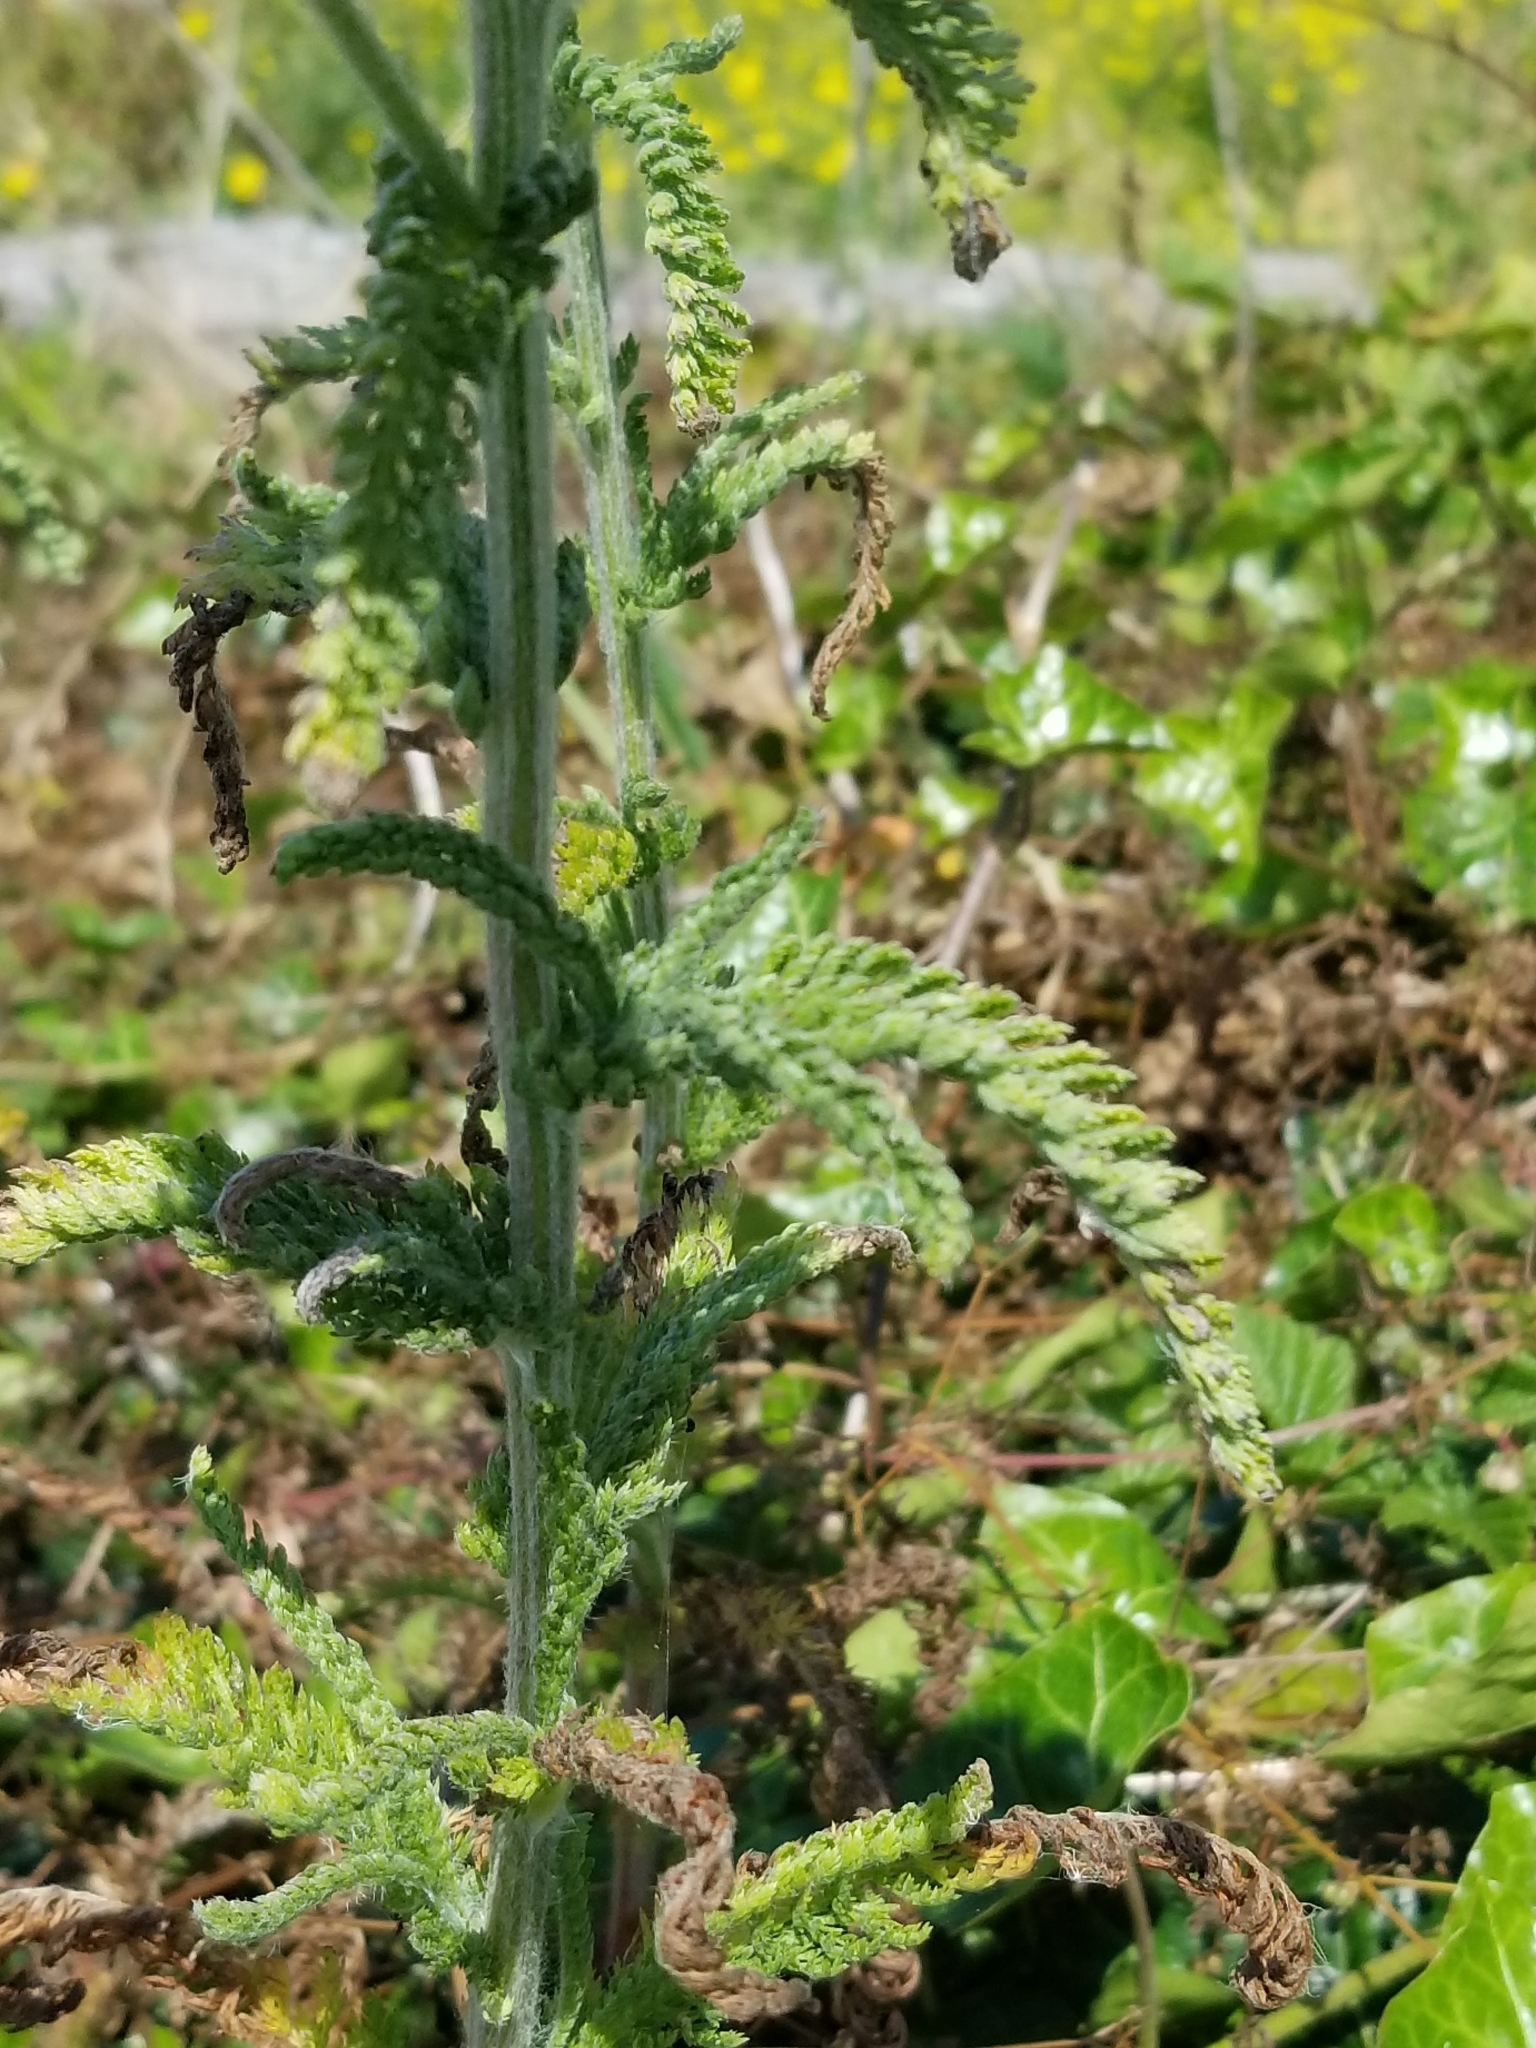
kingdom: Plantae
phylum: Tracheophyta
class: Magnoliopsida
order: Asterales
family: Asteraceae
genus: Achillea
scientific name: Achillea millefolium
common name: Yarrow
